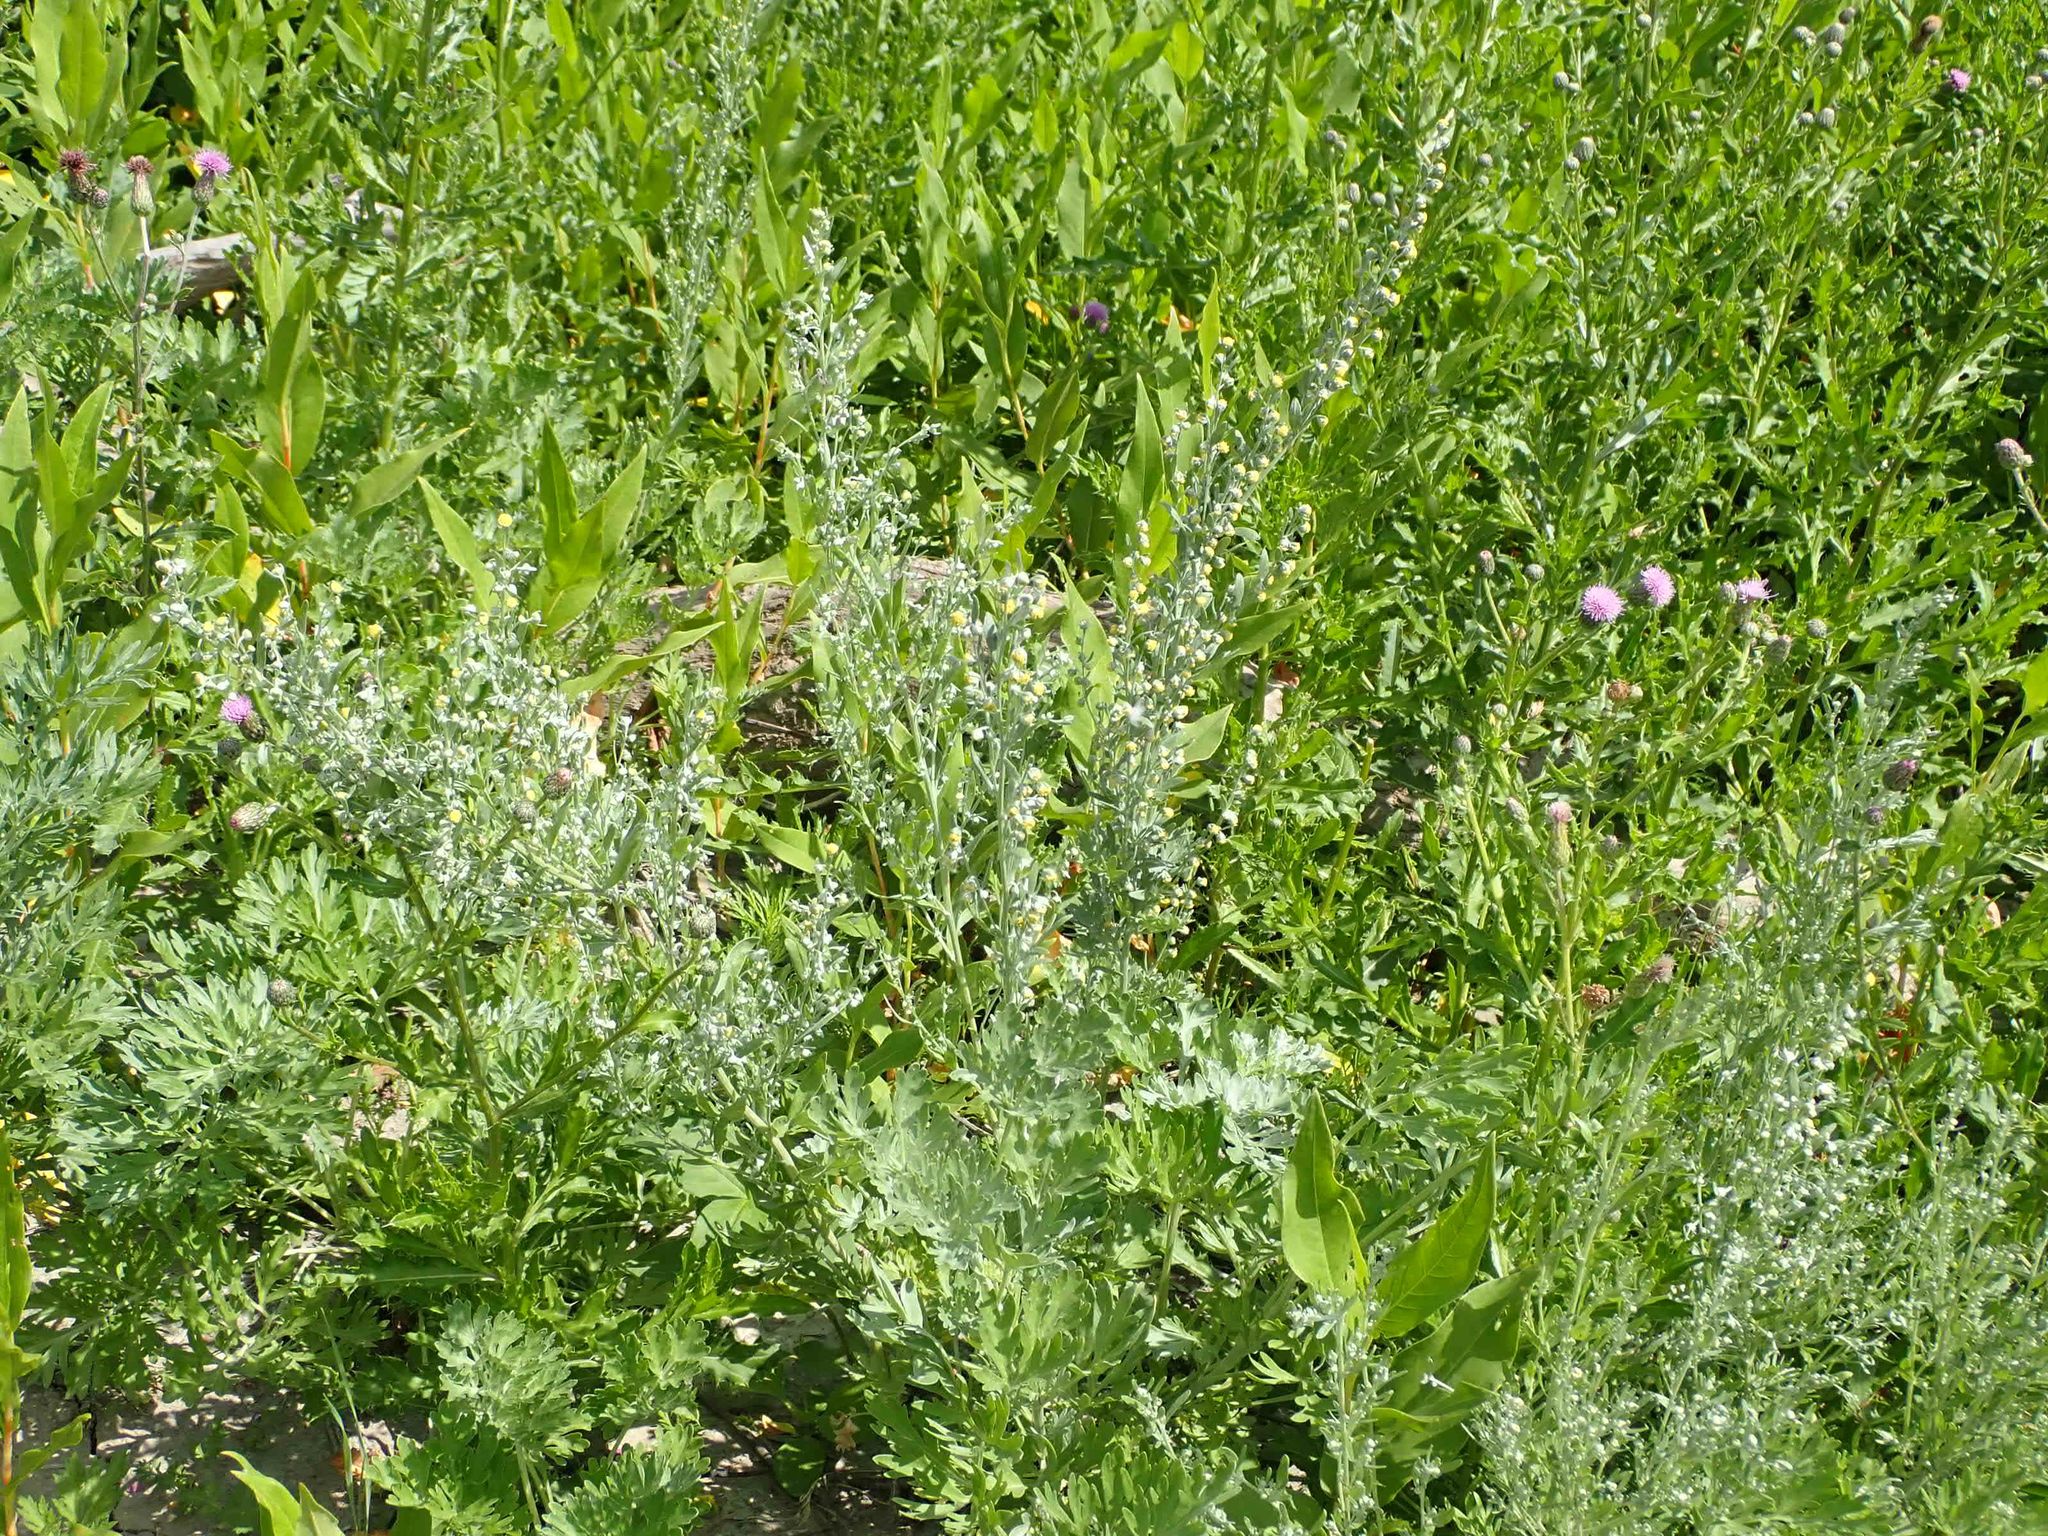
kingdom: Plantae
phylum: Tracheophyta
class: Magnoliopsida
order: Asterales
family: Asteraceae
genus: Artemisia
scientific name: Artemisia absinthium
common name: Wormwood
